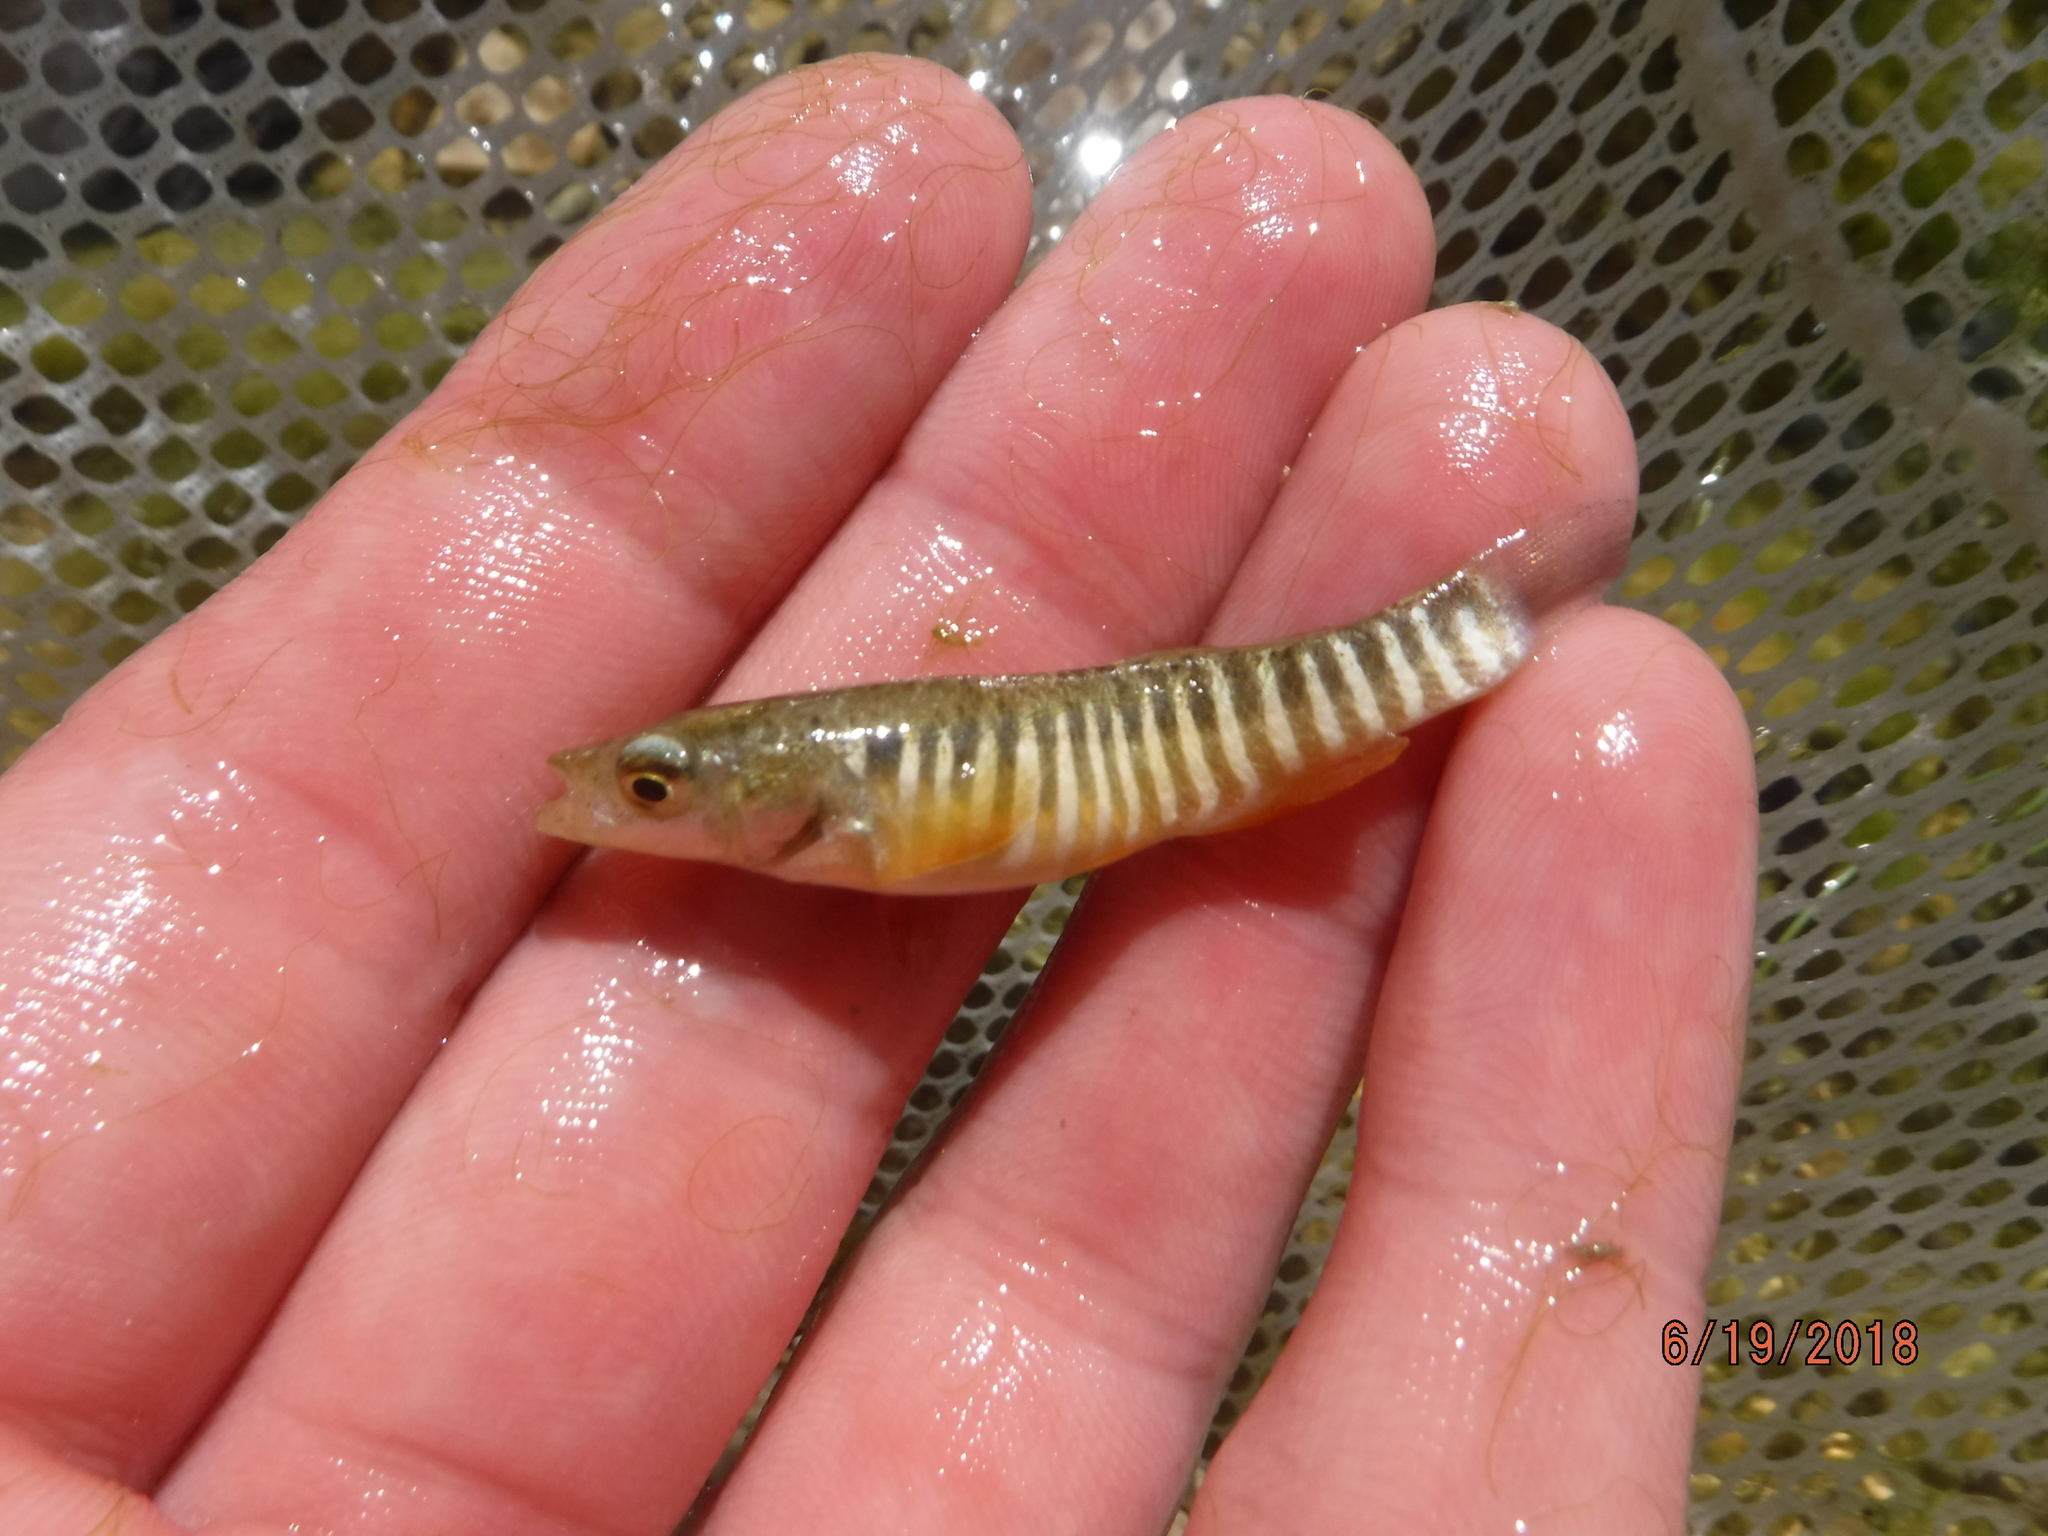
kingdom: Animalia
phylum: Chordata
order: Cyprinodontiformes
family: Fundulidae
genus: Fundulus
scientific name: Fundulus zebrinus
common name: Plains killifish
